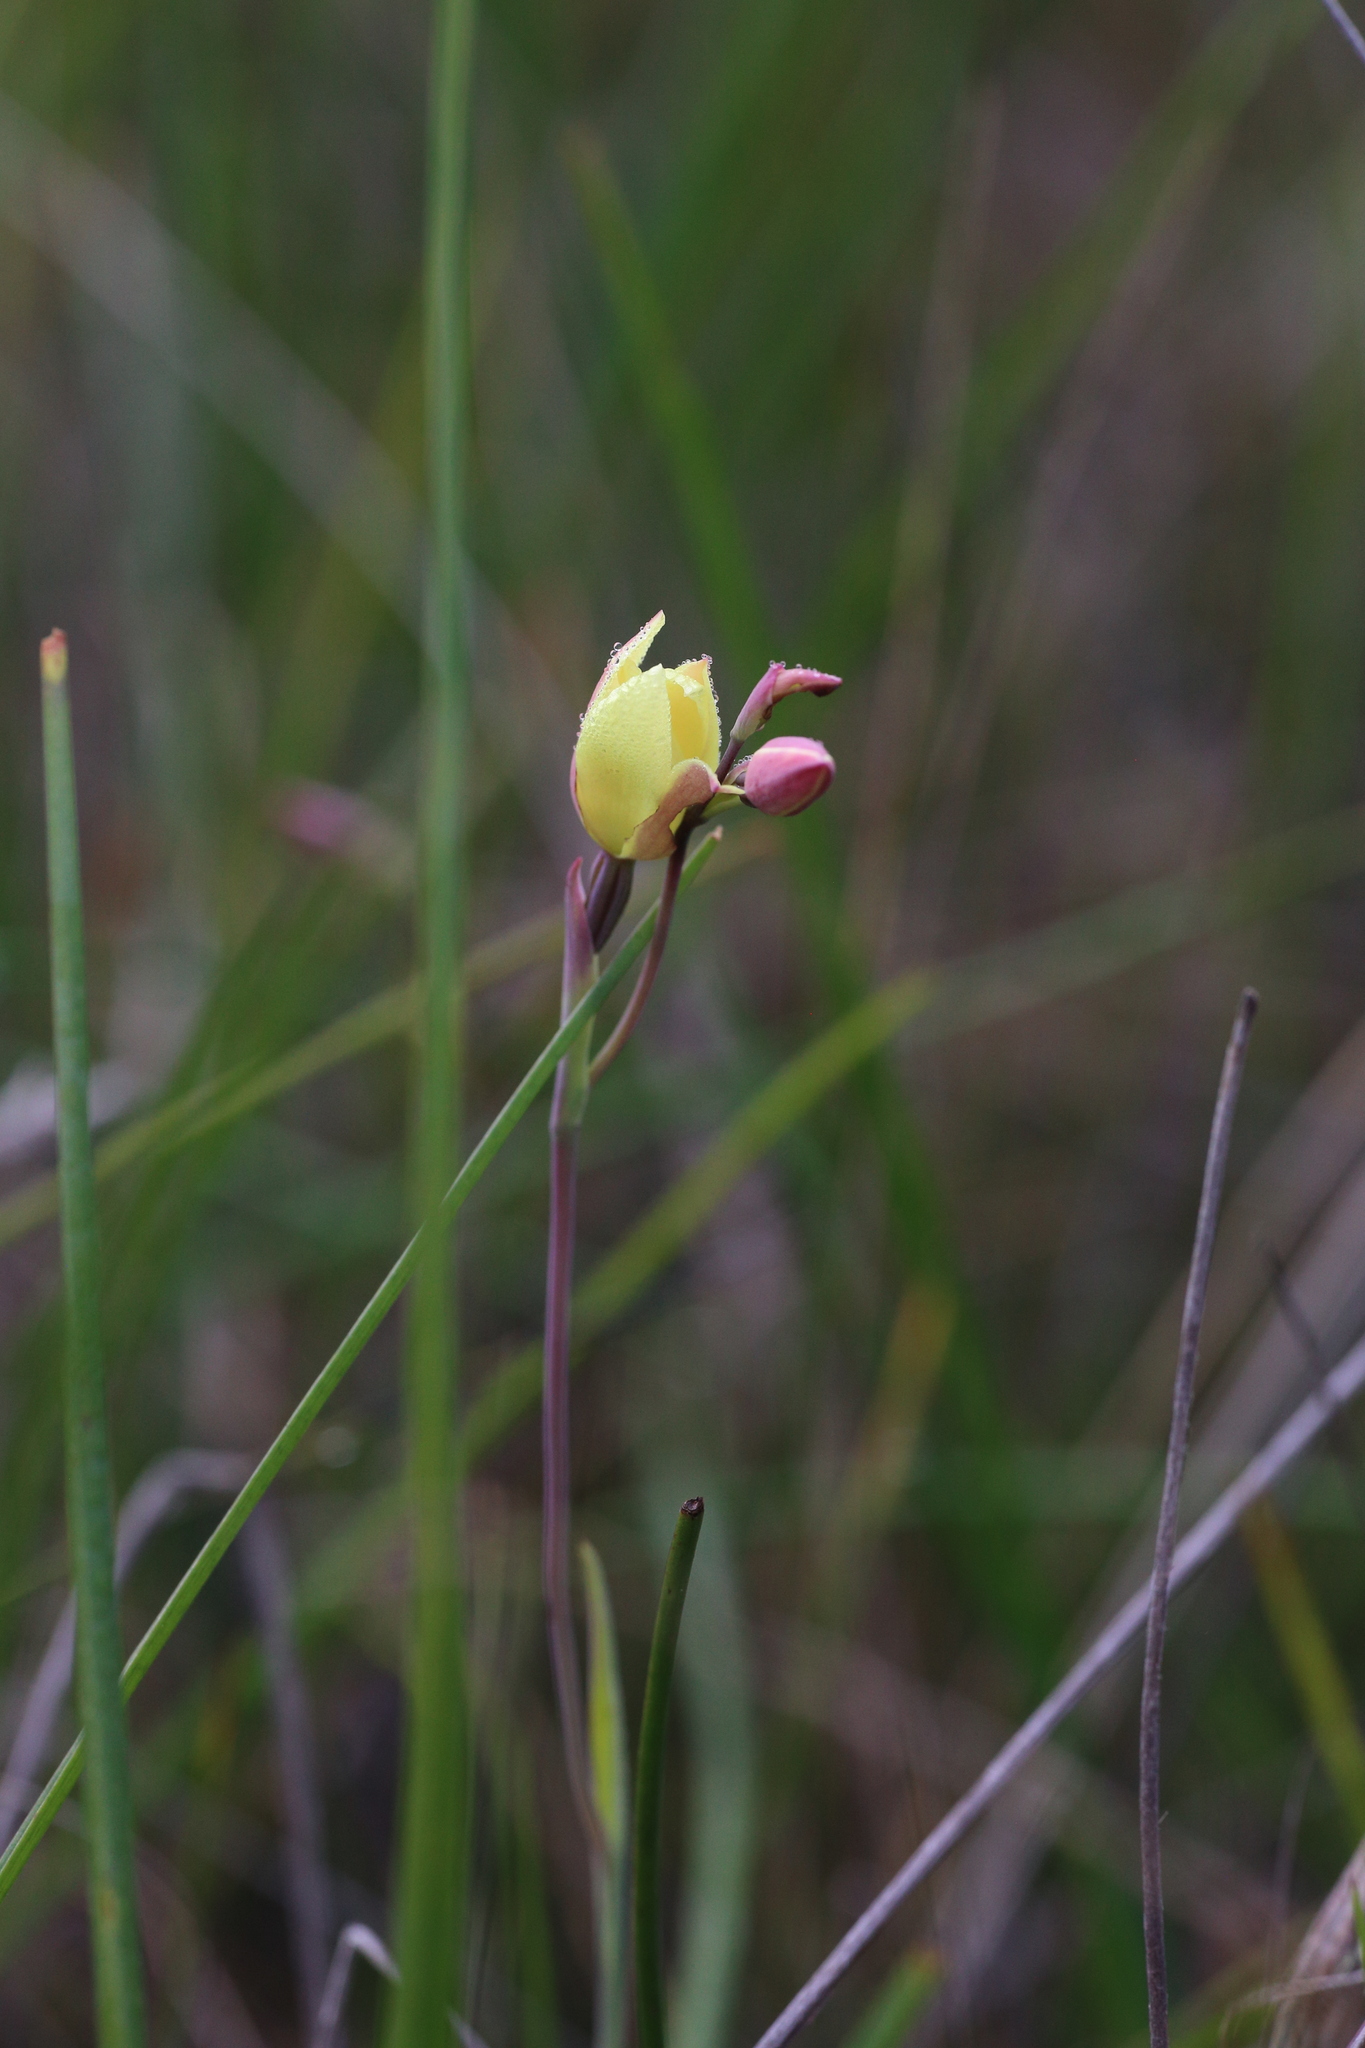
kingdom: Plantae
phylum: Tracheophyta
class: Liliopsida
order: Asparagales
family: Orchidaceae
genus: Thelymitra
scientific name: Thelymitra antennifera
